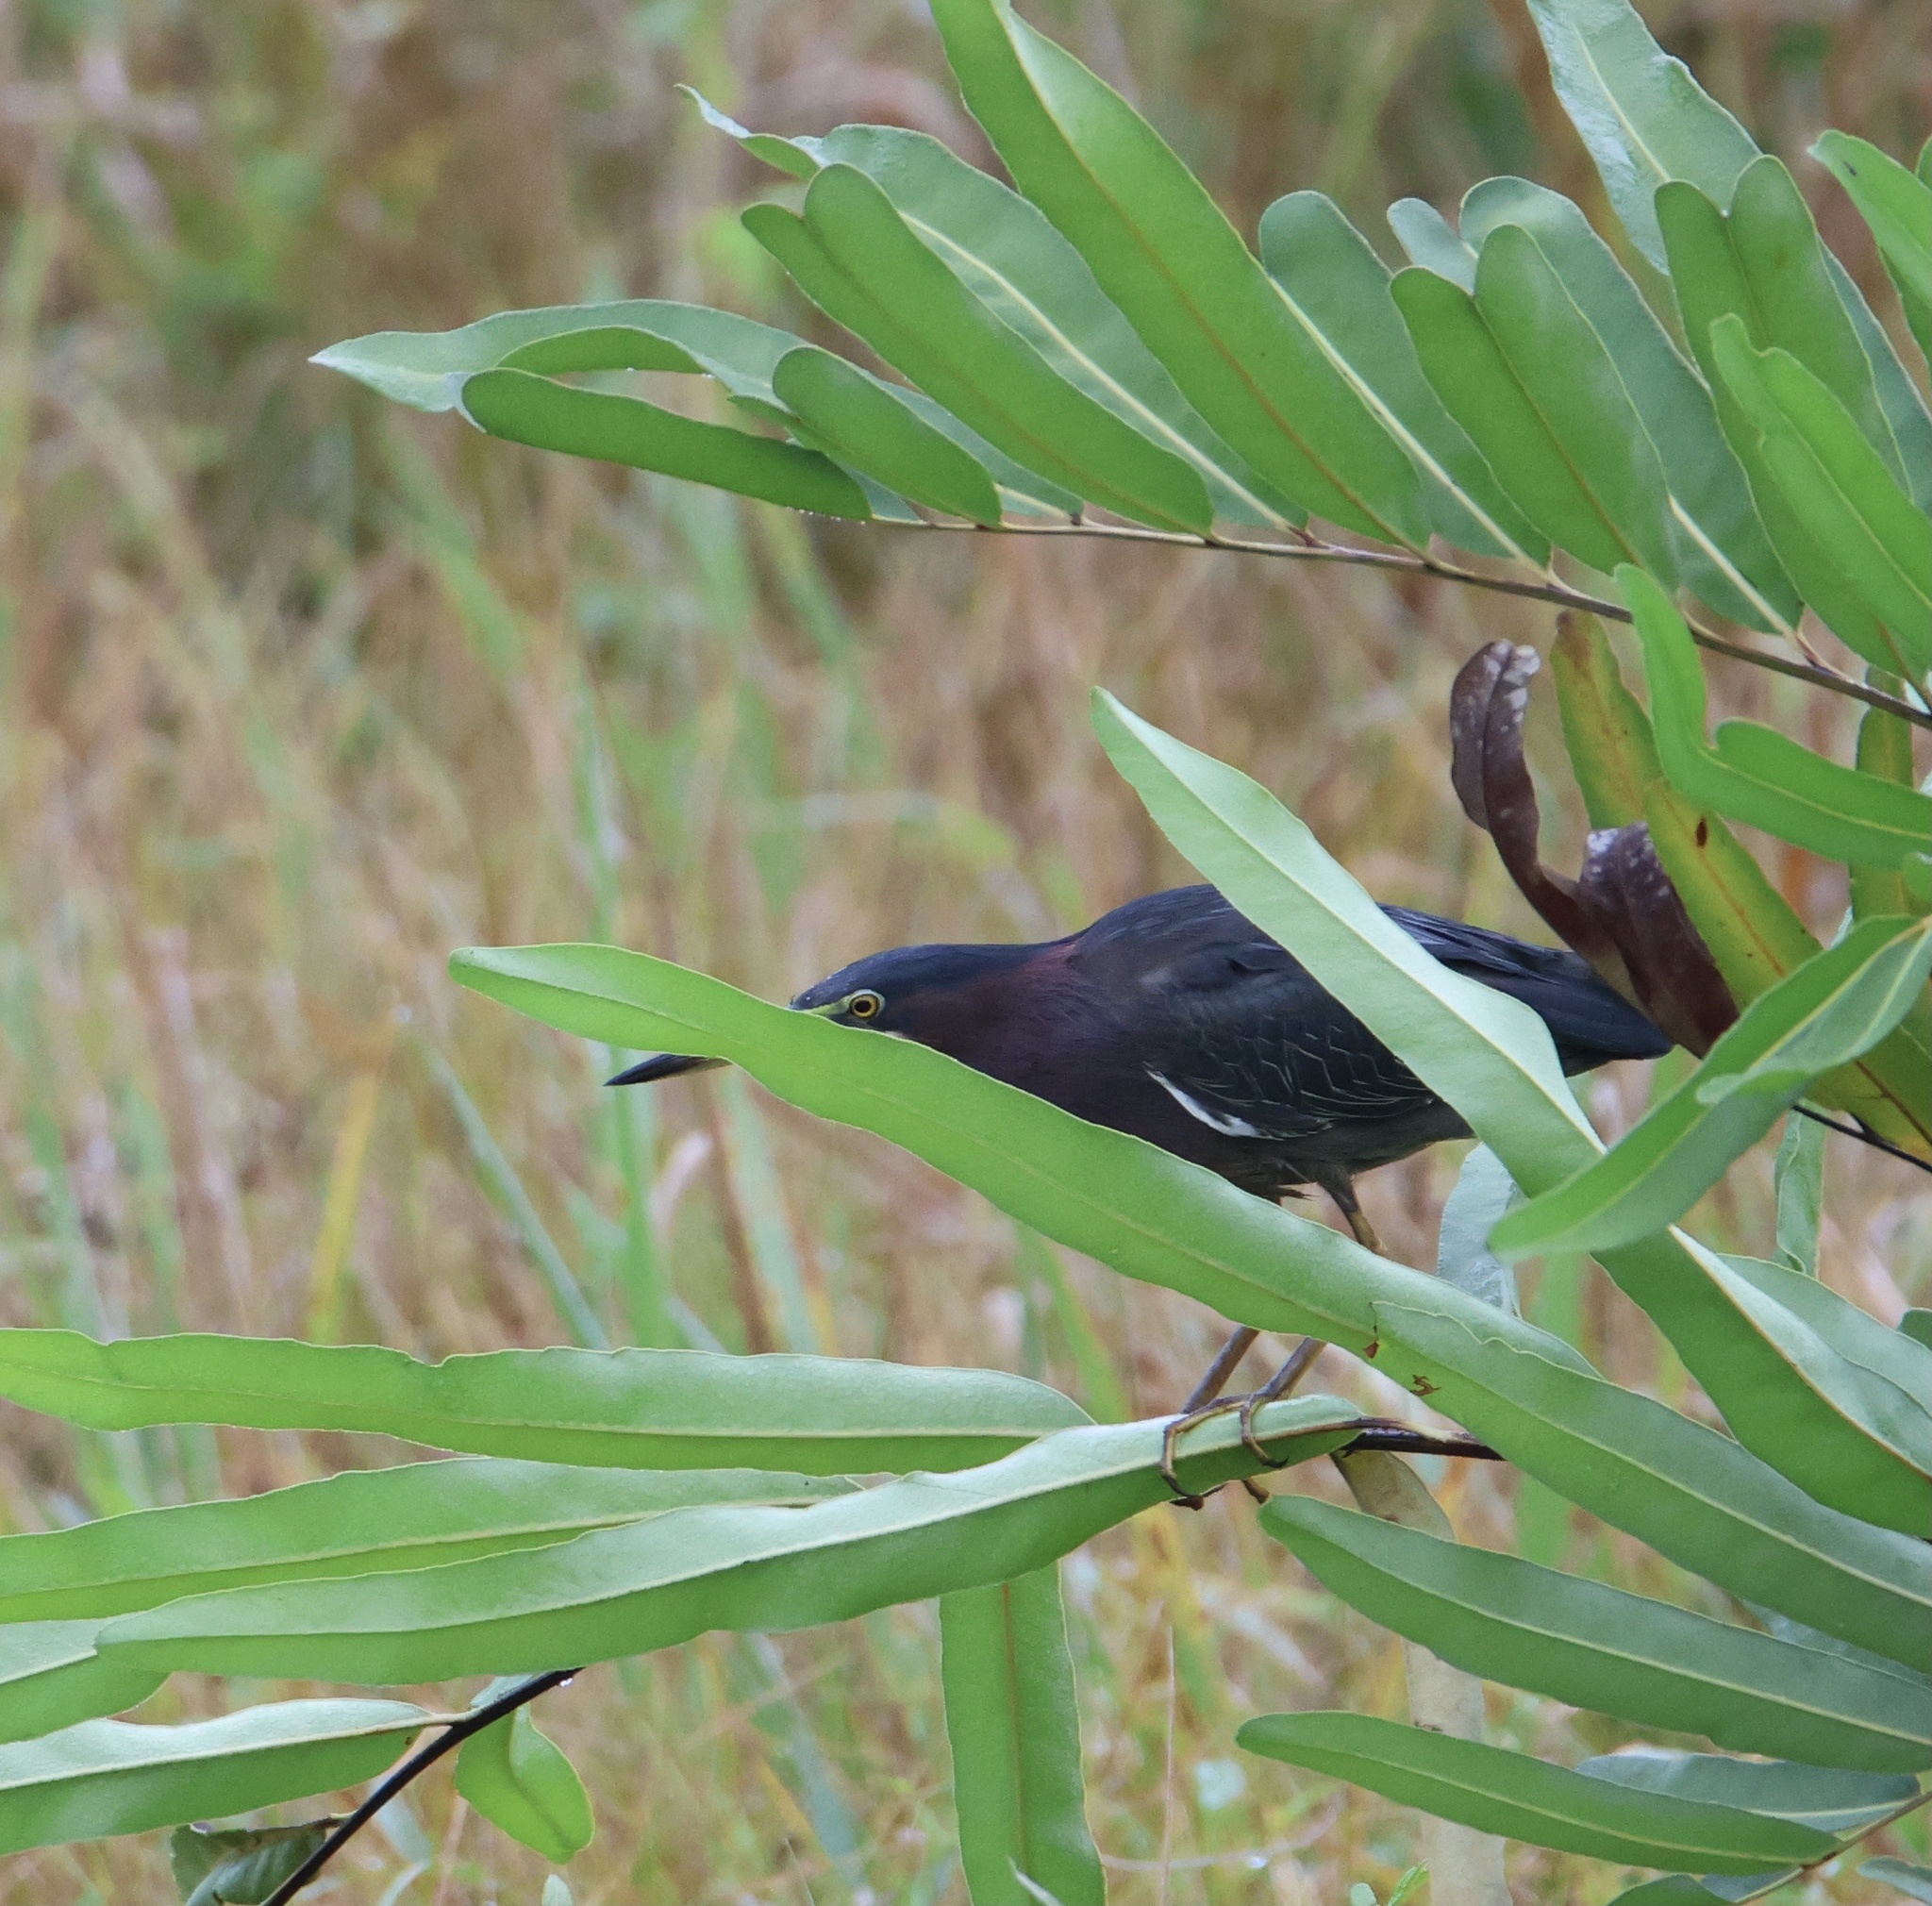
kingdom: Animalia
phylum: Chordata
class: Aves
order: Pelecaniformes
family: Ardeidae
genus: Butorides
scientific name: Butorides virescens
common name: Green heron
